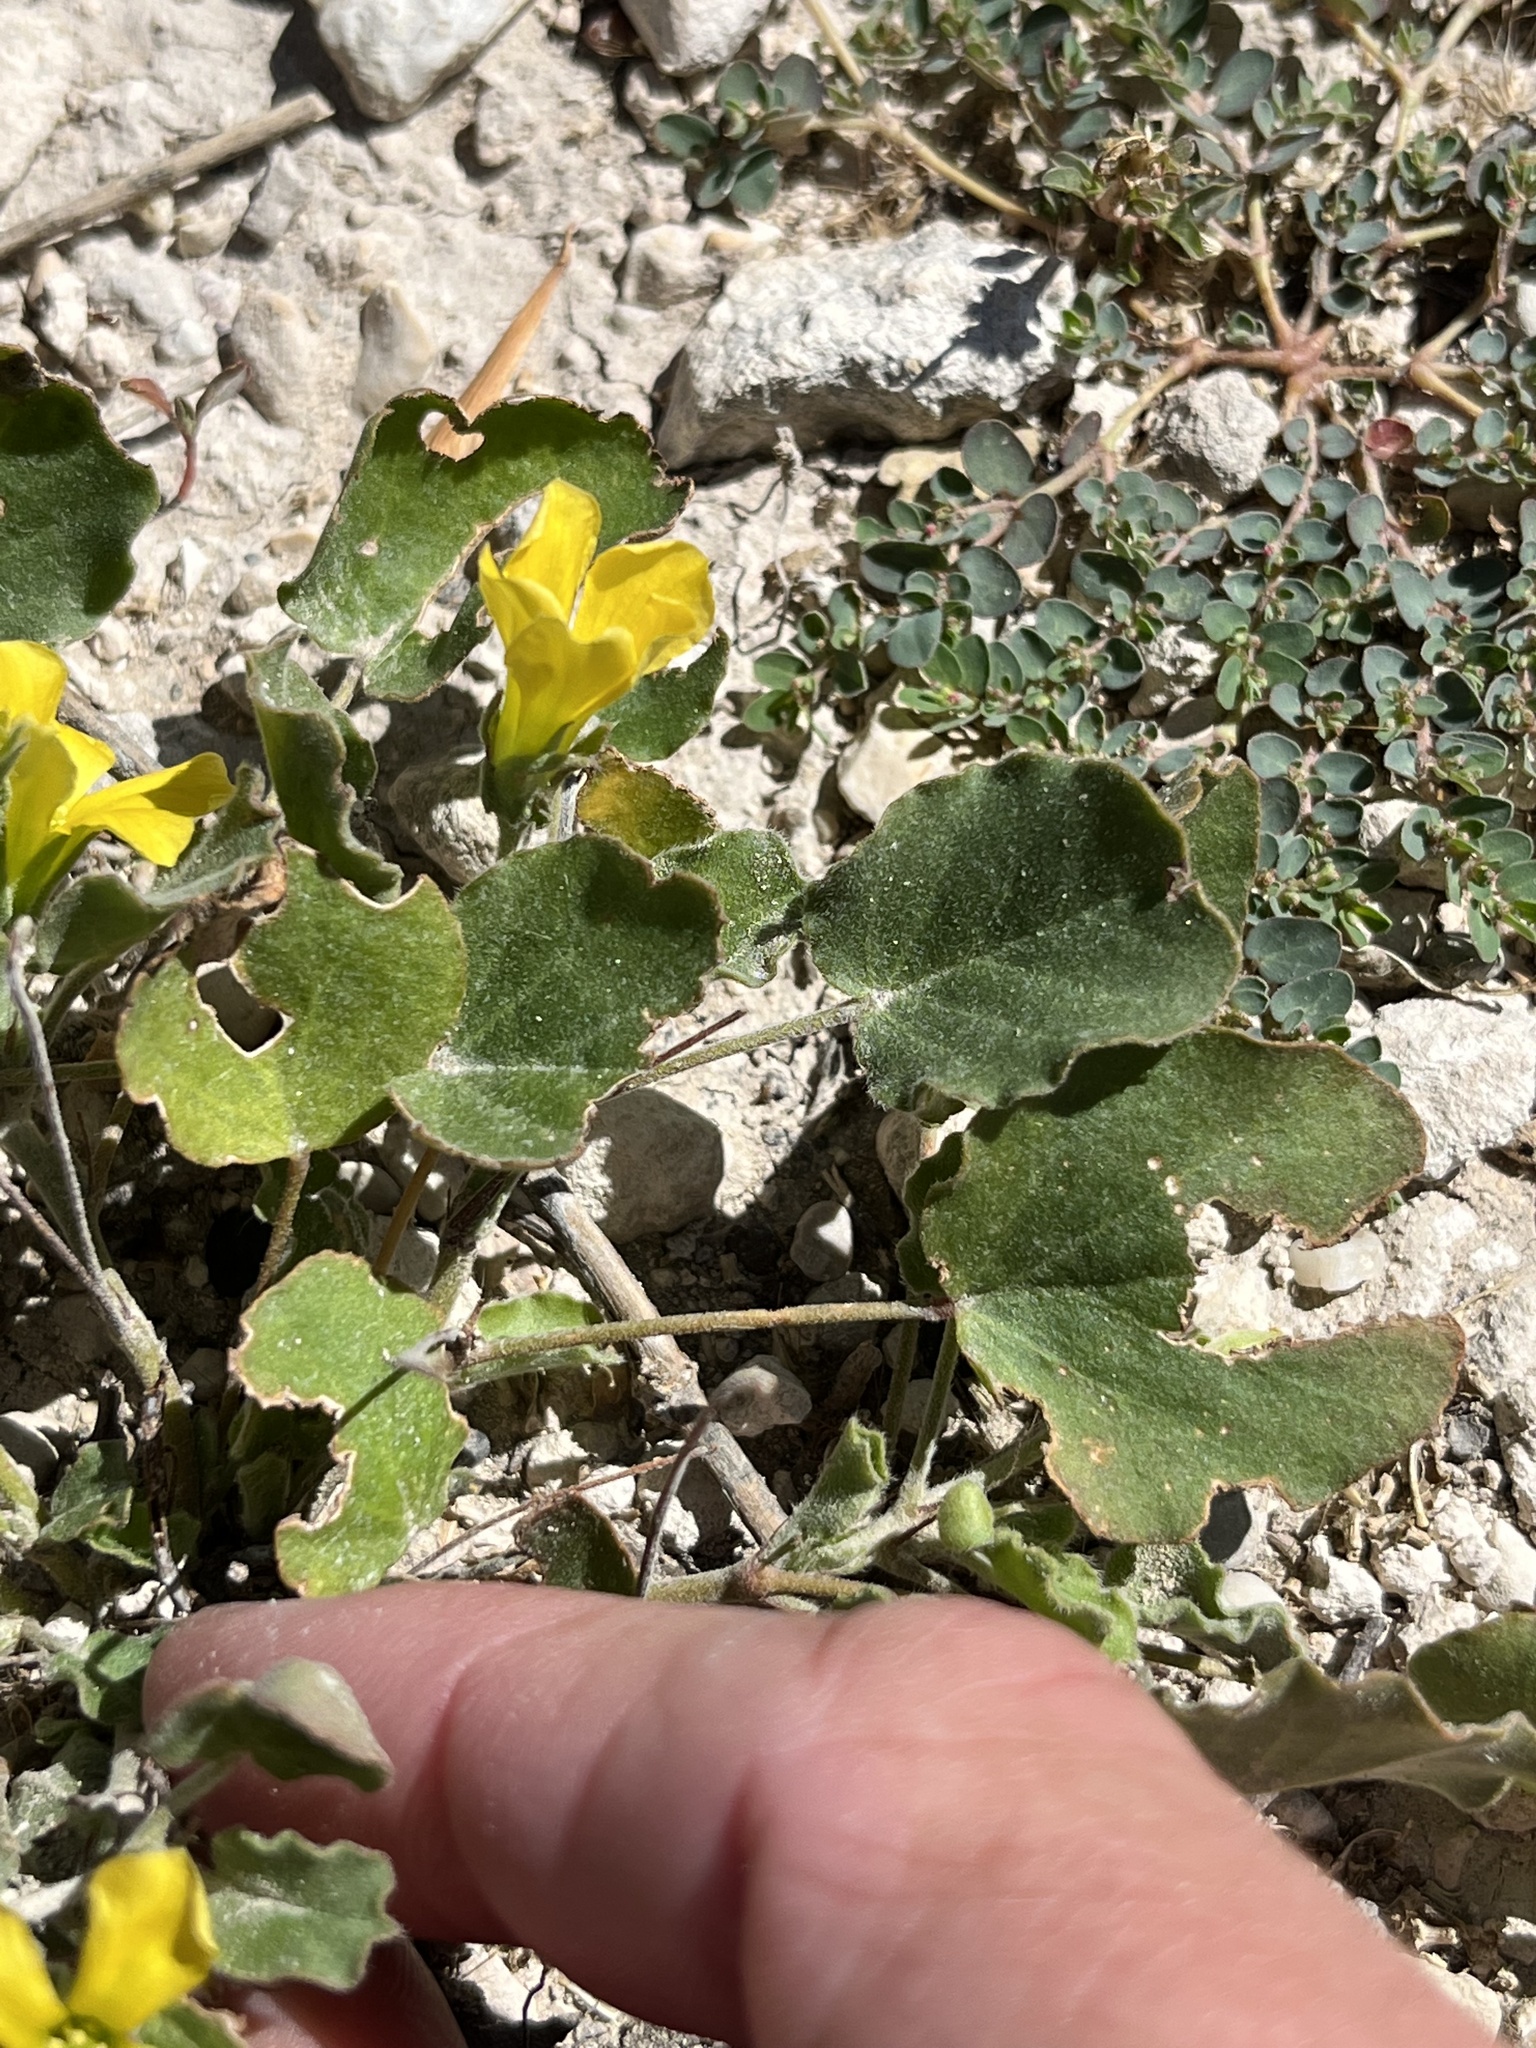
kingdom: Plantae
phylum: Tracheophyta
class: Magnoliopsida
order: Oxalidales
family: Oxalidaceae
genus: Oxalis
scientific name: Oxalis dichondrifolia
